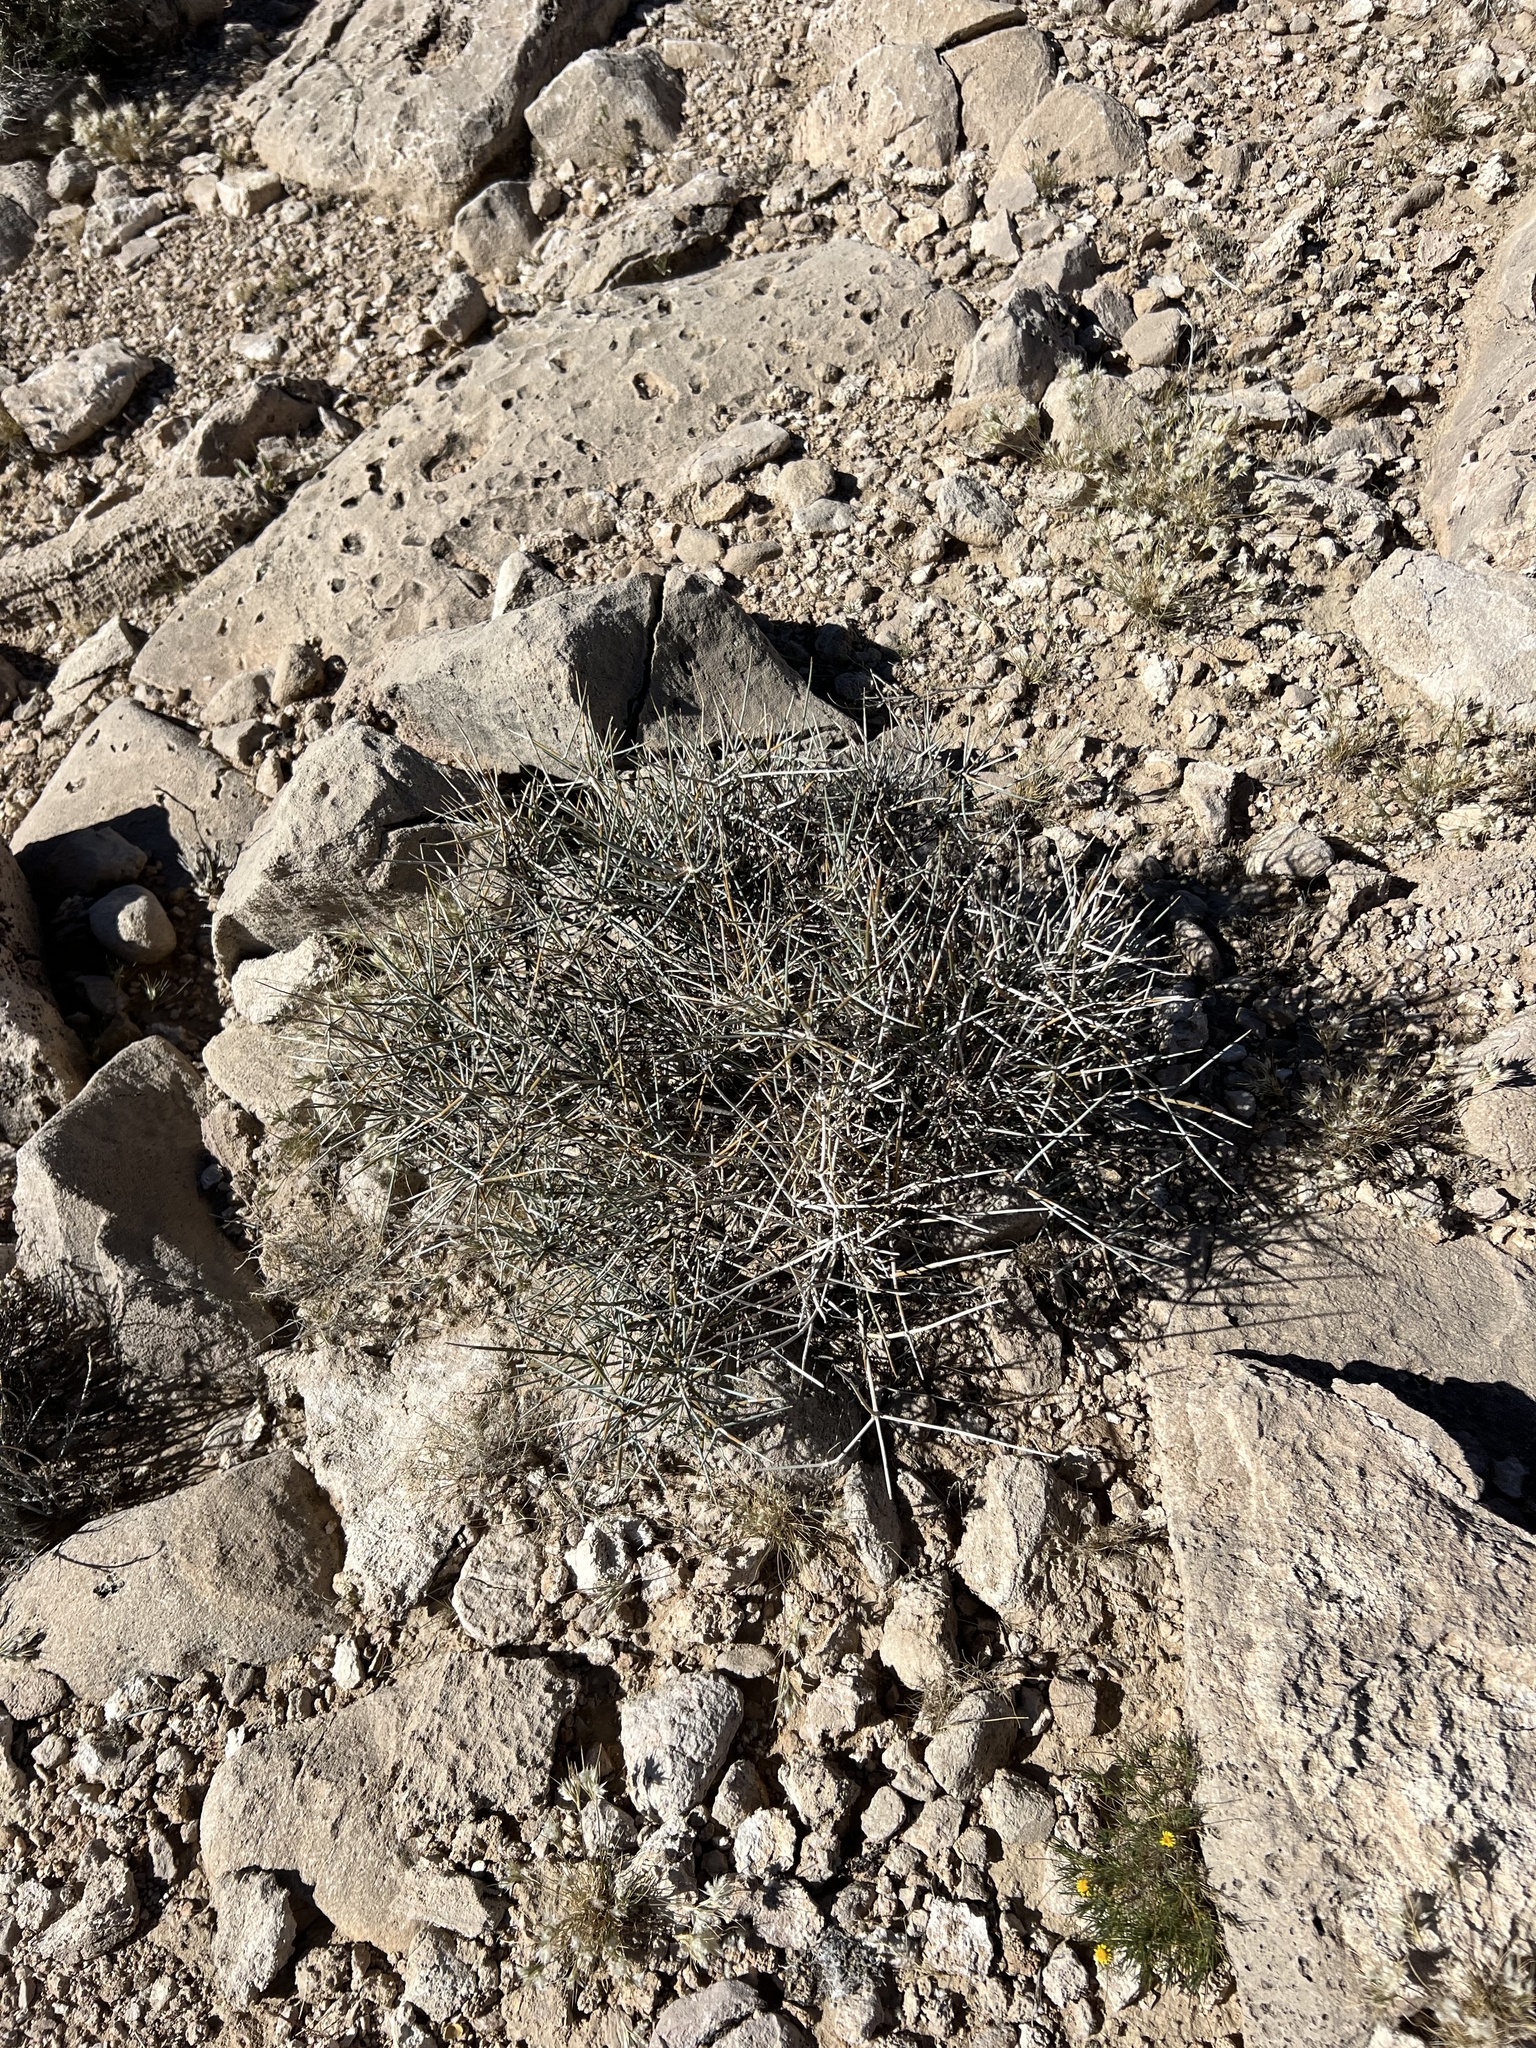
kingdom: Plantae
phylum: Tracheophyta
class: Gnetopsida
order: Ephedrales
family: Ephedraceae
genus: Ephedra
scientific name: Ephedra nevadensis
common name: Gray ephedra
